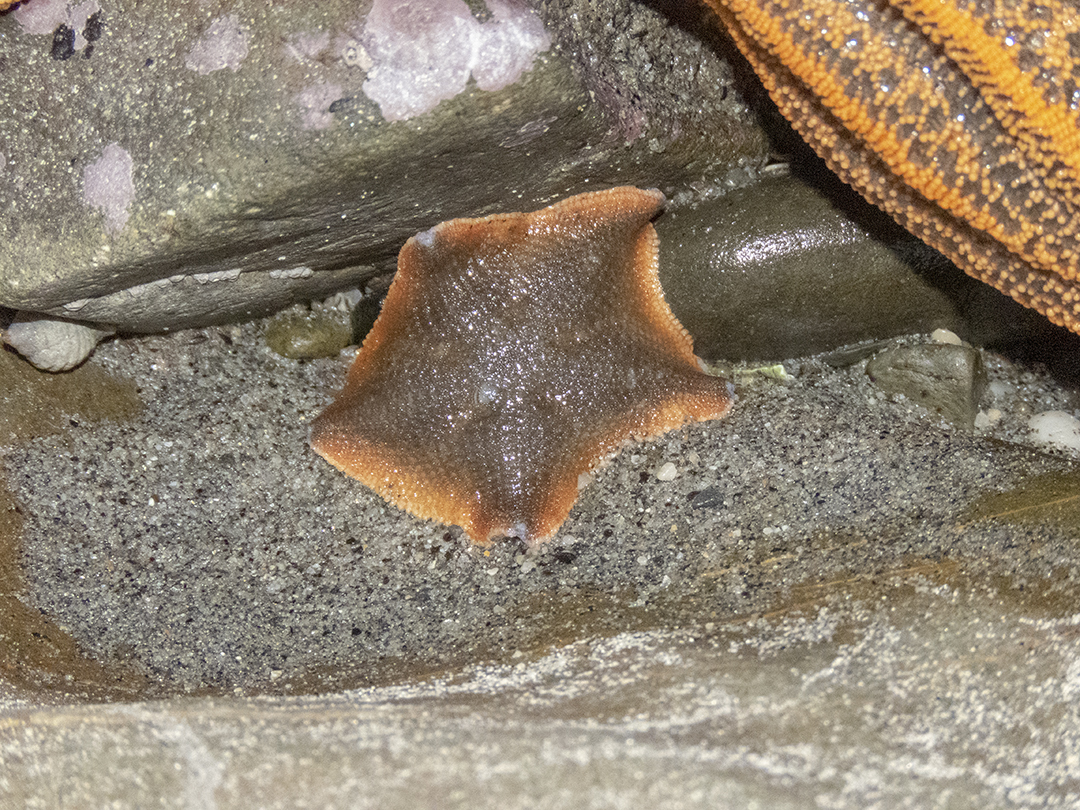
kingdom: Animalia
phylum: Echinodermata
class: Asteroidea
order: Valvatida
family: Asterinidae
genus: Patiriella
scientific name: Patiriella regularis
